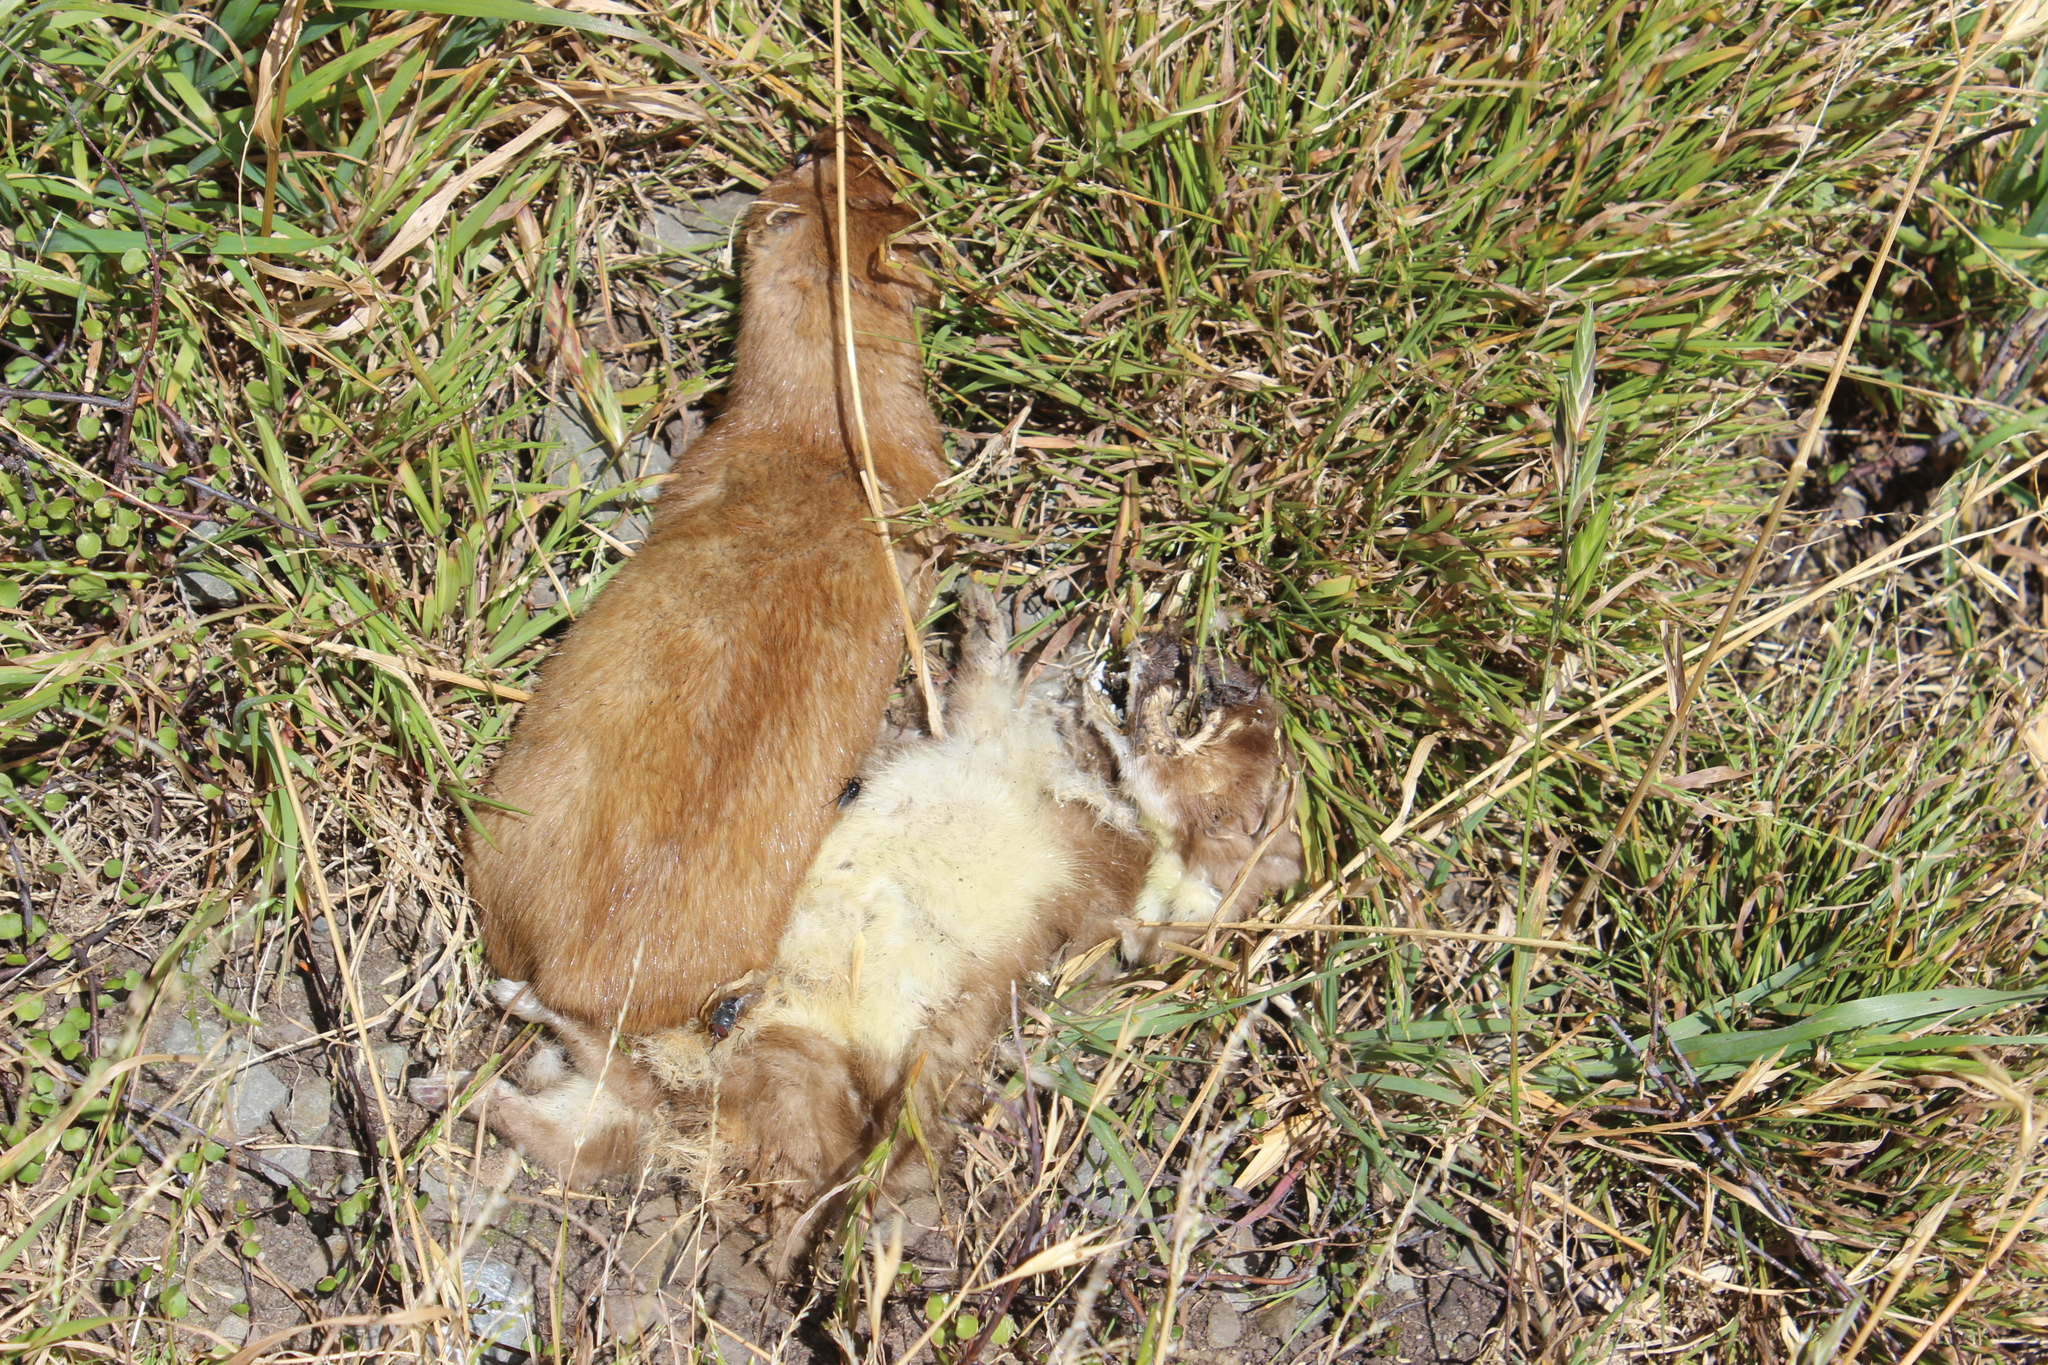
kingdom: Animalia
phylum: Chordata
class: Mammalia
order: Carnivora
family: Mustelidae
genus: Mustela
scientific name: Mustela nivalis
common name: Least weasel
